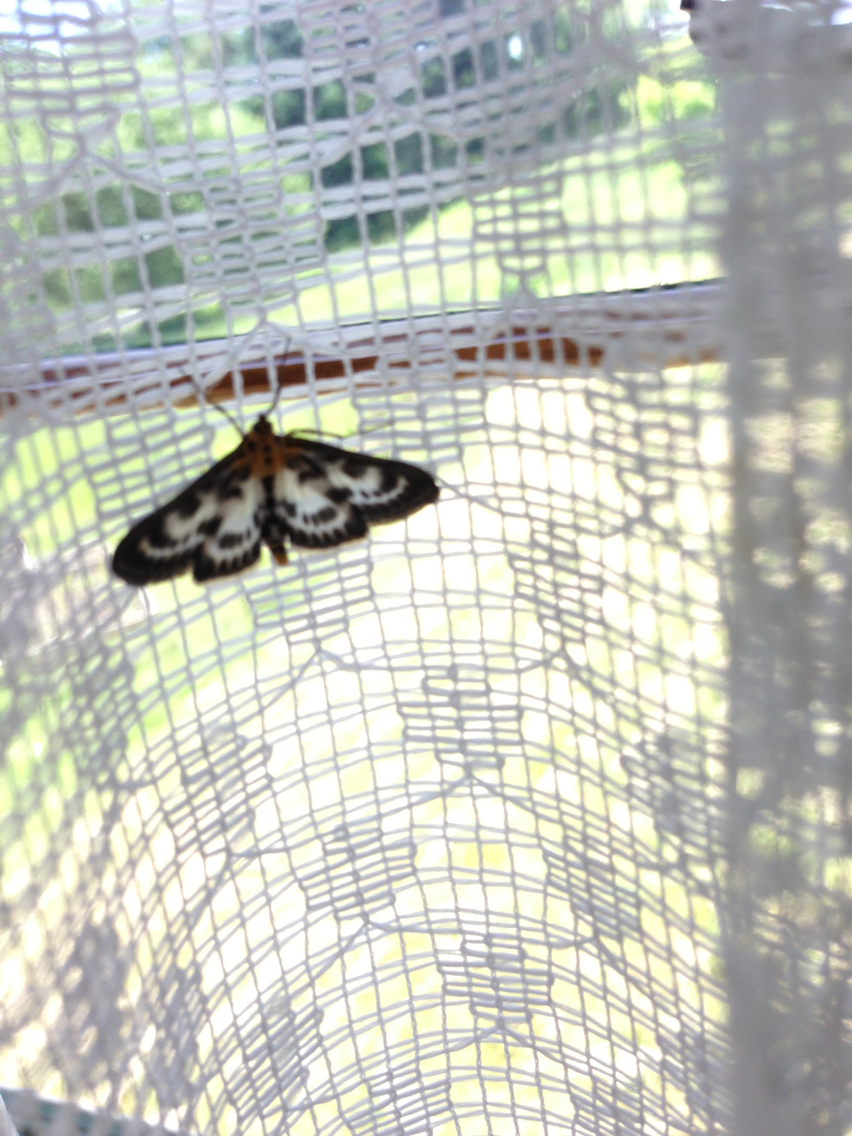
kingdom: Animalia
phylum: Arthropoda
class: Insecta
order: Lepidoptera
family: Crambidae
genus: Anania
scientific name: Anania hortulata
